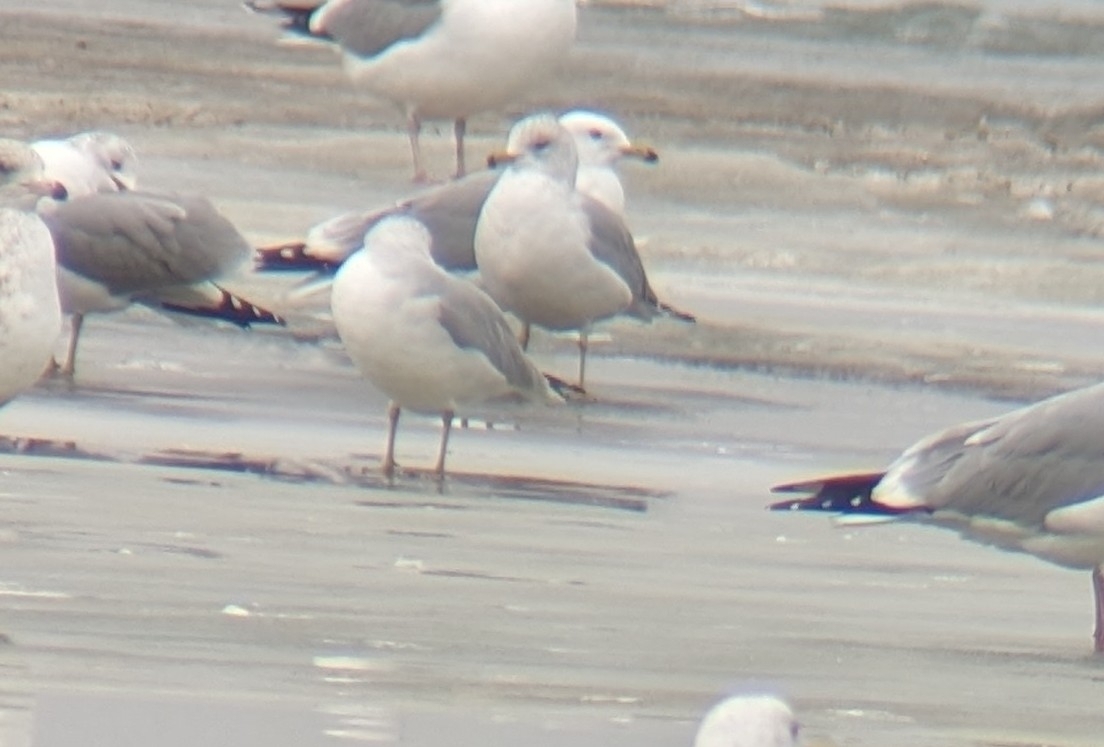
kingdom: Animalia
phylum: Chordata
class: Aves
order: Charadriiformes
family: Laridae
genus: Larus
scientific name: Larus delawarensis
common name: Ring-billed gull
